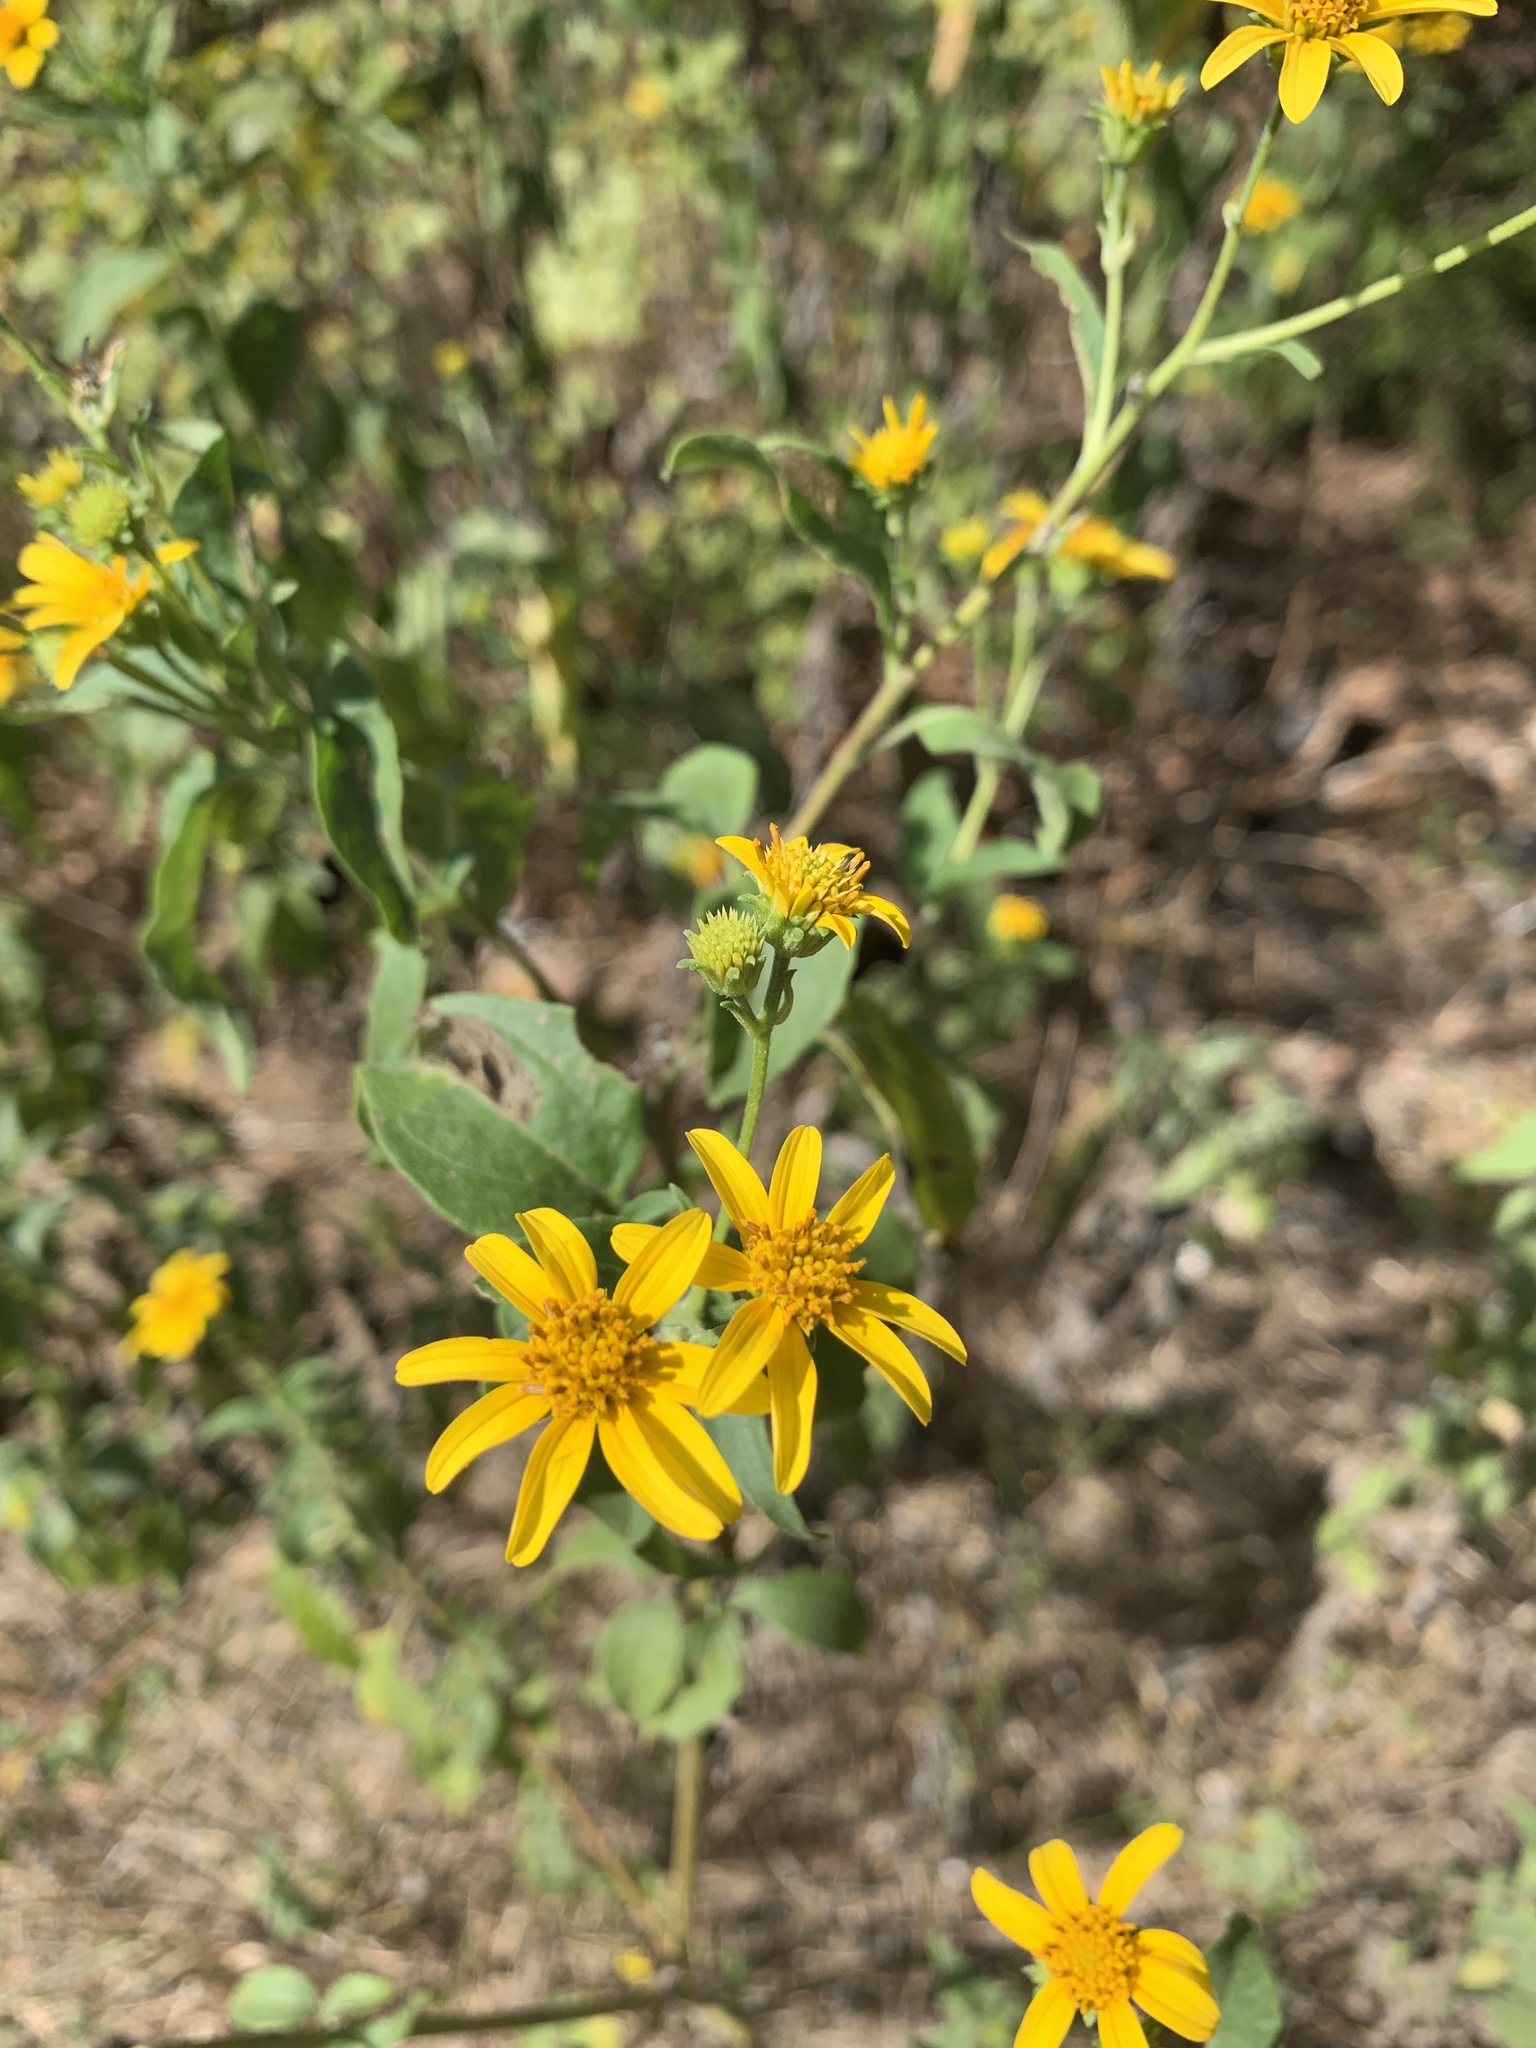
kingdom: Plantae
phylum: Tracheophyta
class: Magnoliopsida
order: Asterales
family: Asteraceae
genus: Viguiera
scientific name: Viguiera dentata
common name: Toothleaf
